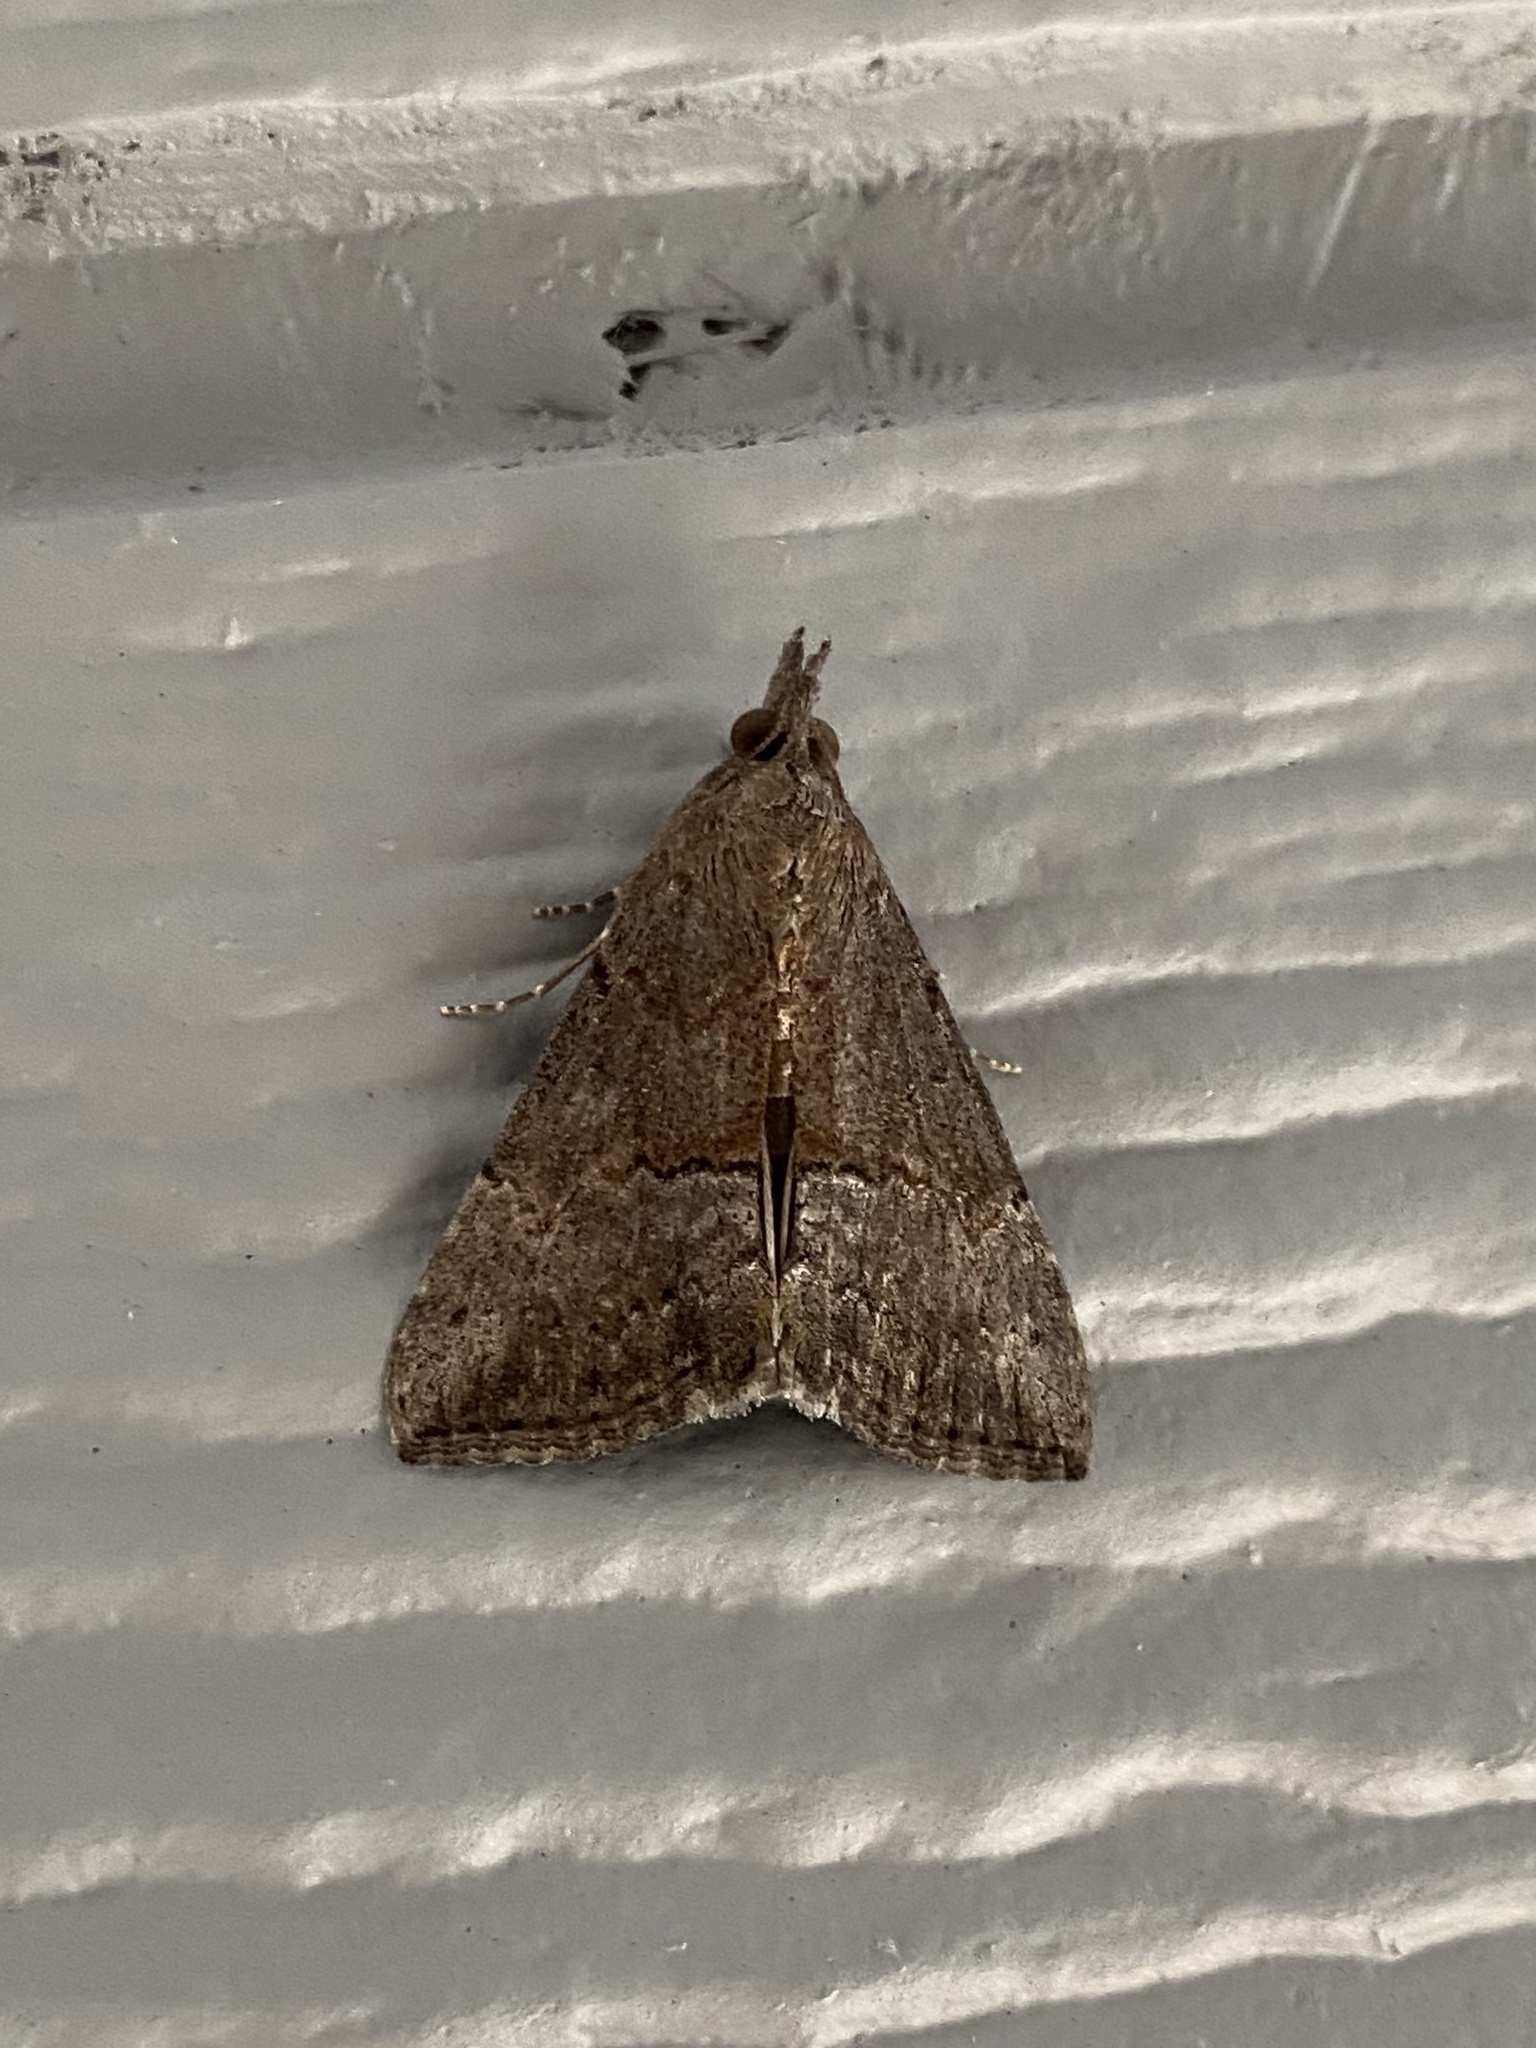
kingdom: Animalia
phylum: Arthropoda
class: Insecta
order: Lepidoptera
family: Erebidae
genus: Hypena
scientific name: Hypena scabra
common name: Green cloverworm
